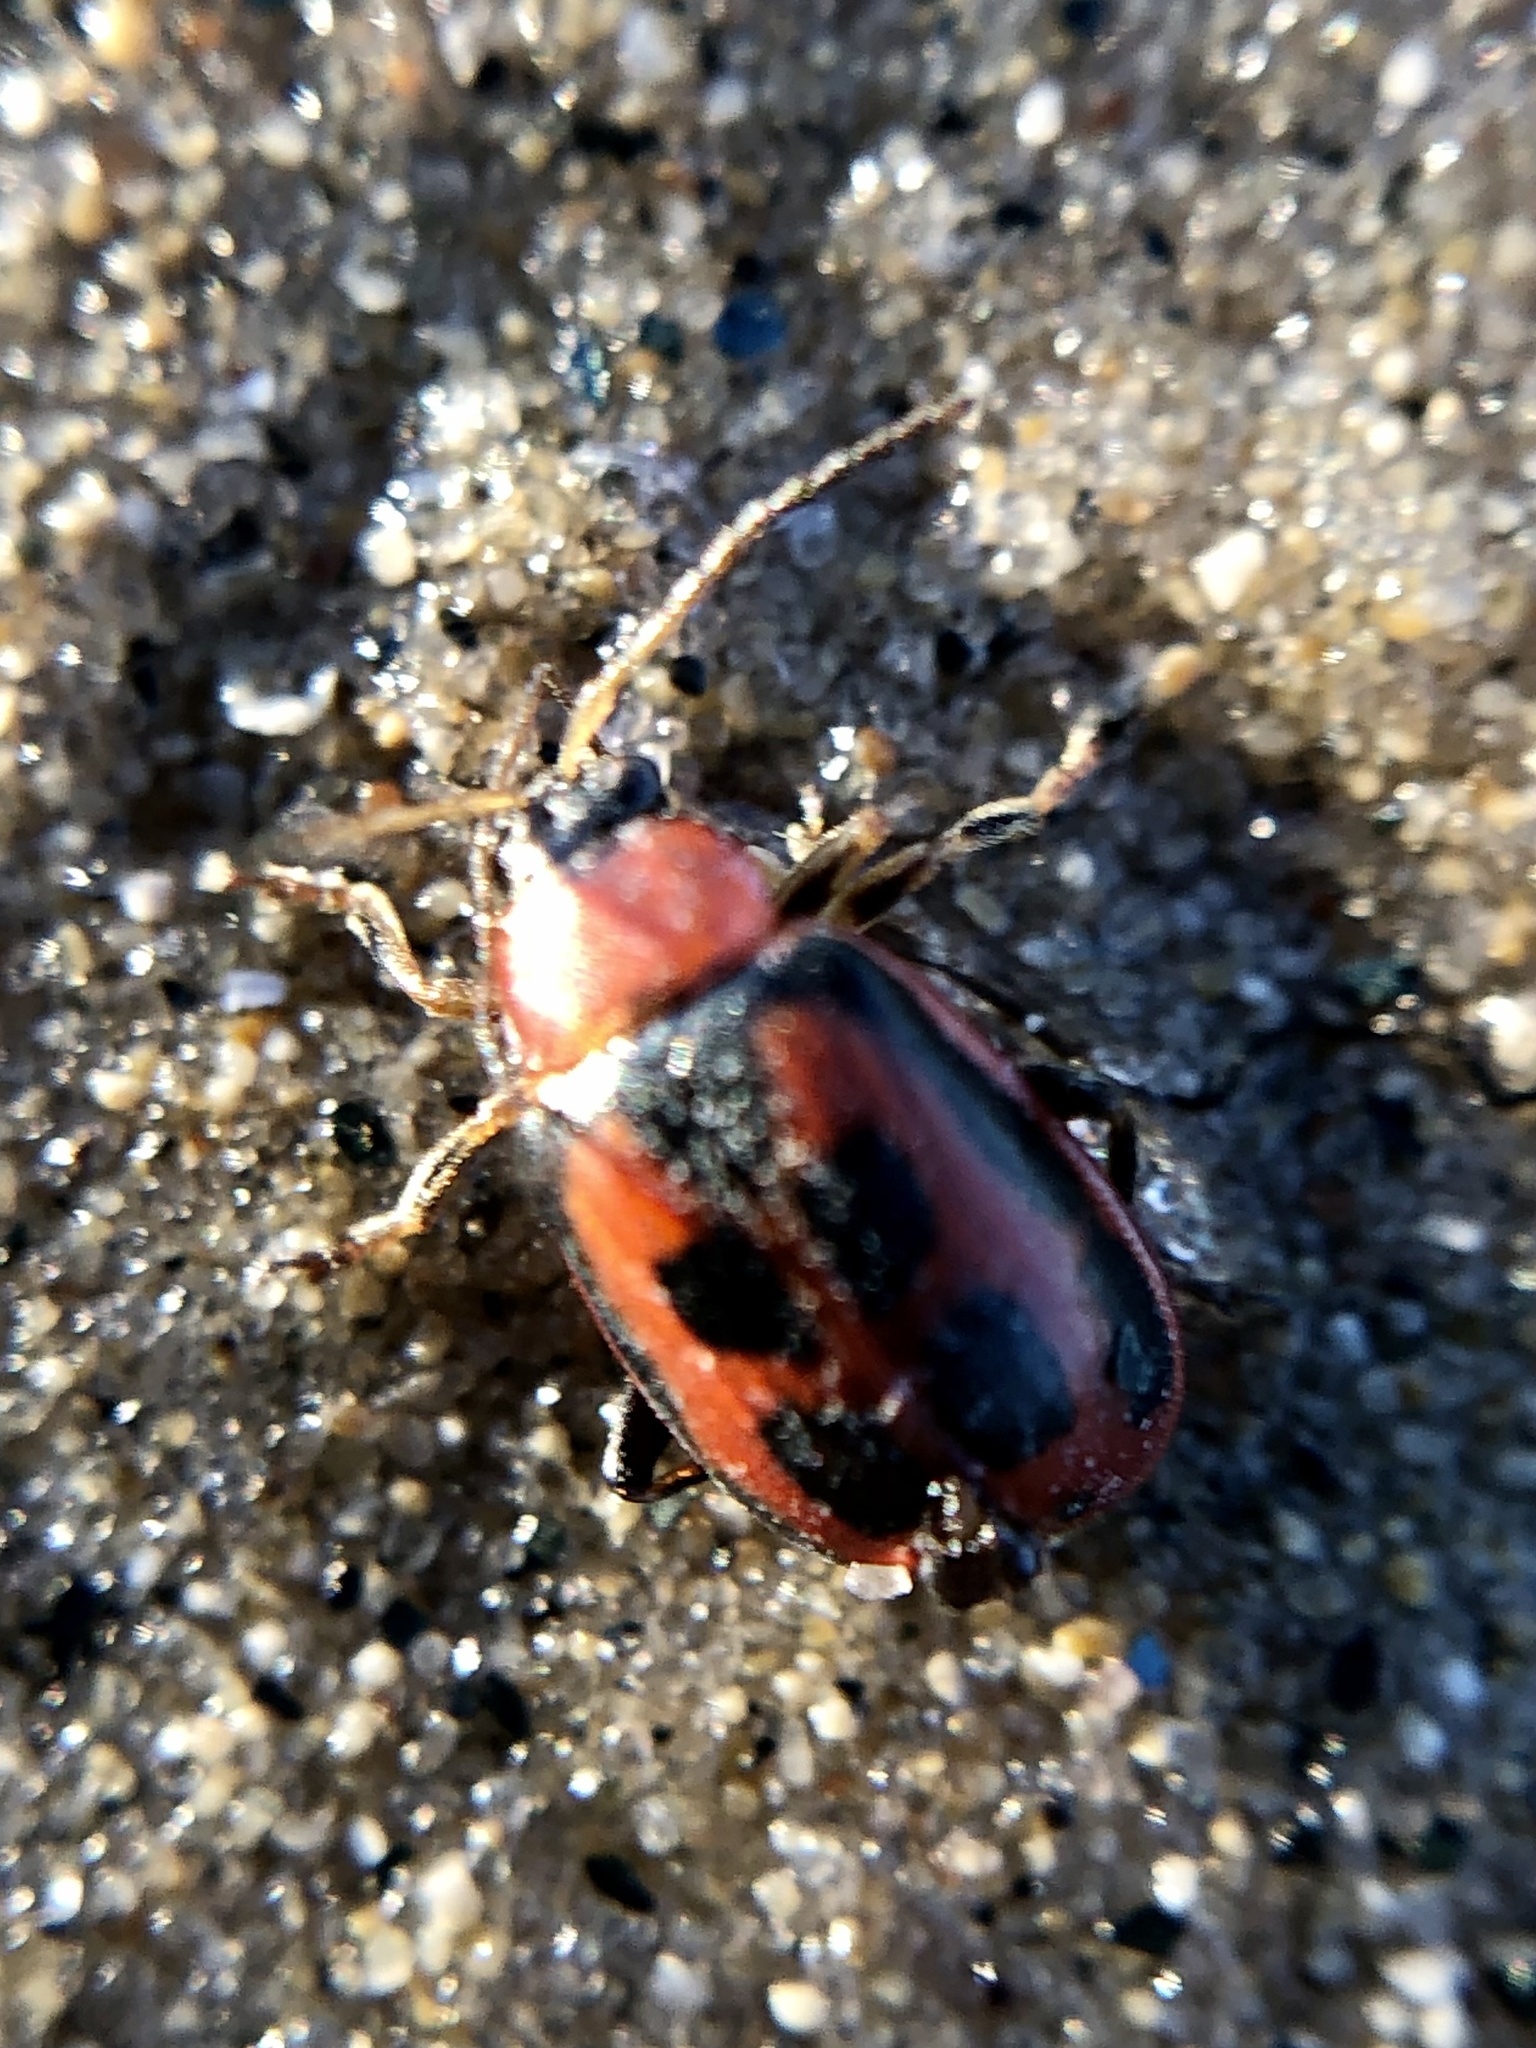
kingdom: Animalia
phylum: Arthropoda
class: Insecta
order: Coleoptera
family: Chrysomelidae
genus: Cerotoma
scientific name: Cerotoma trifurcata
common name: Bean leaf beetle
